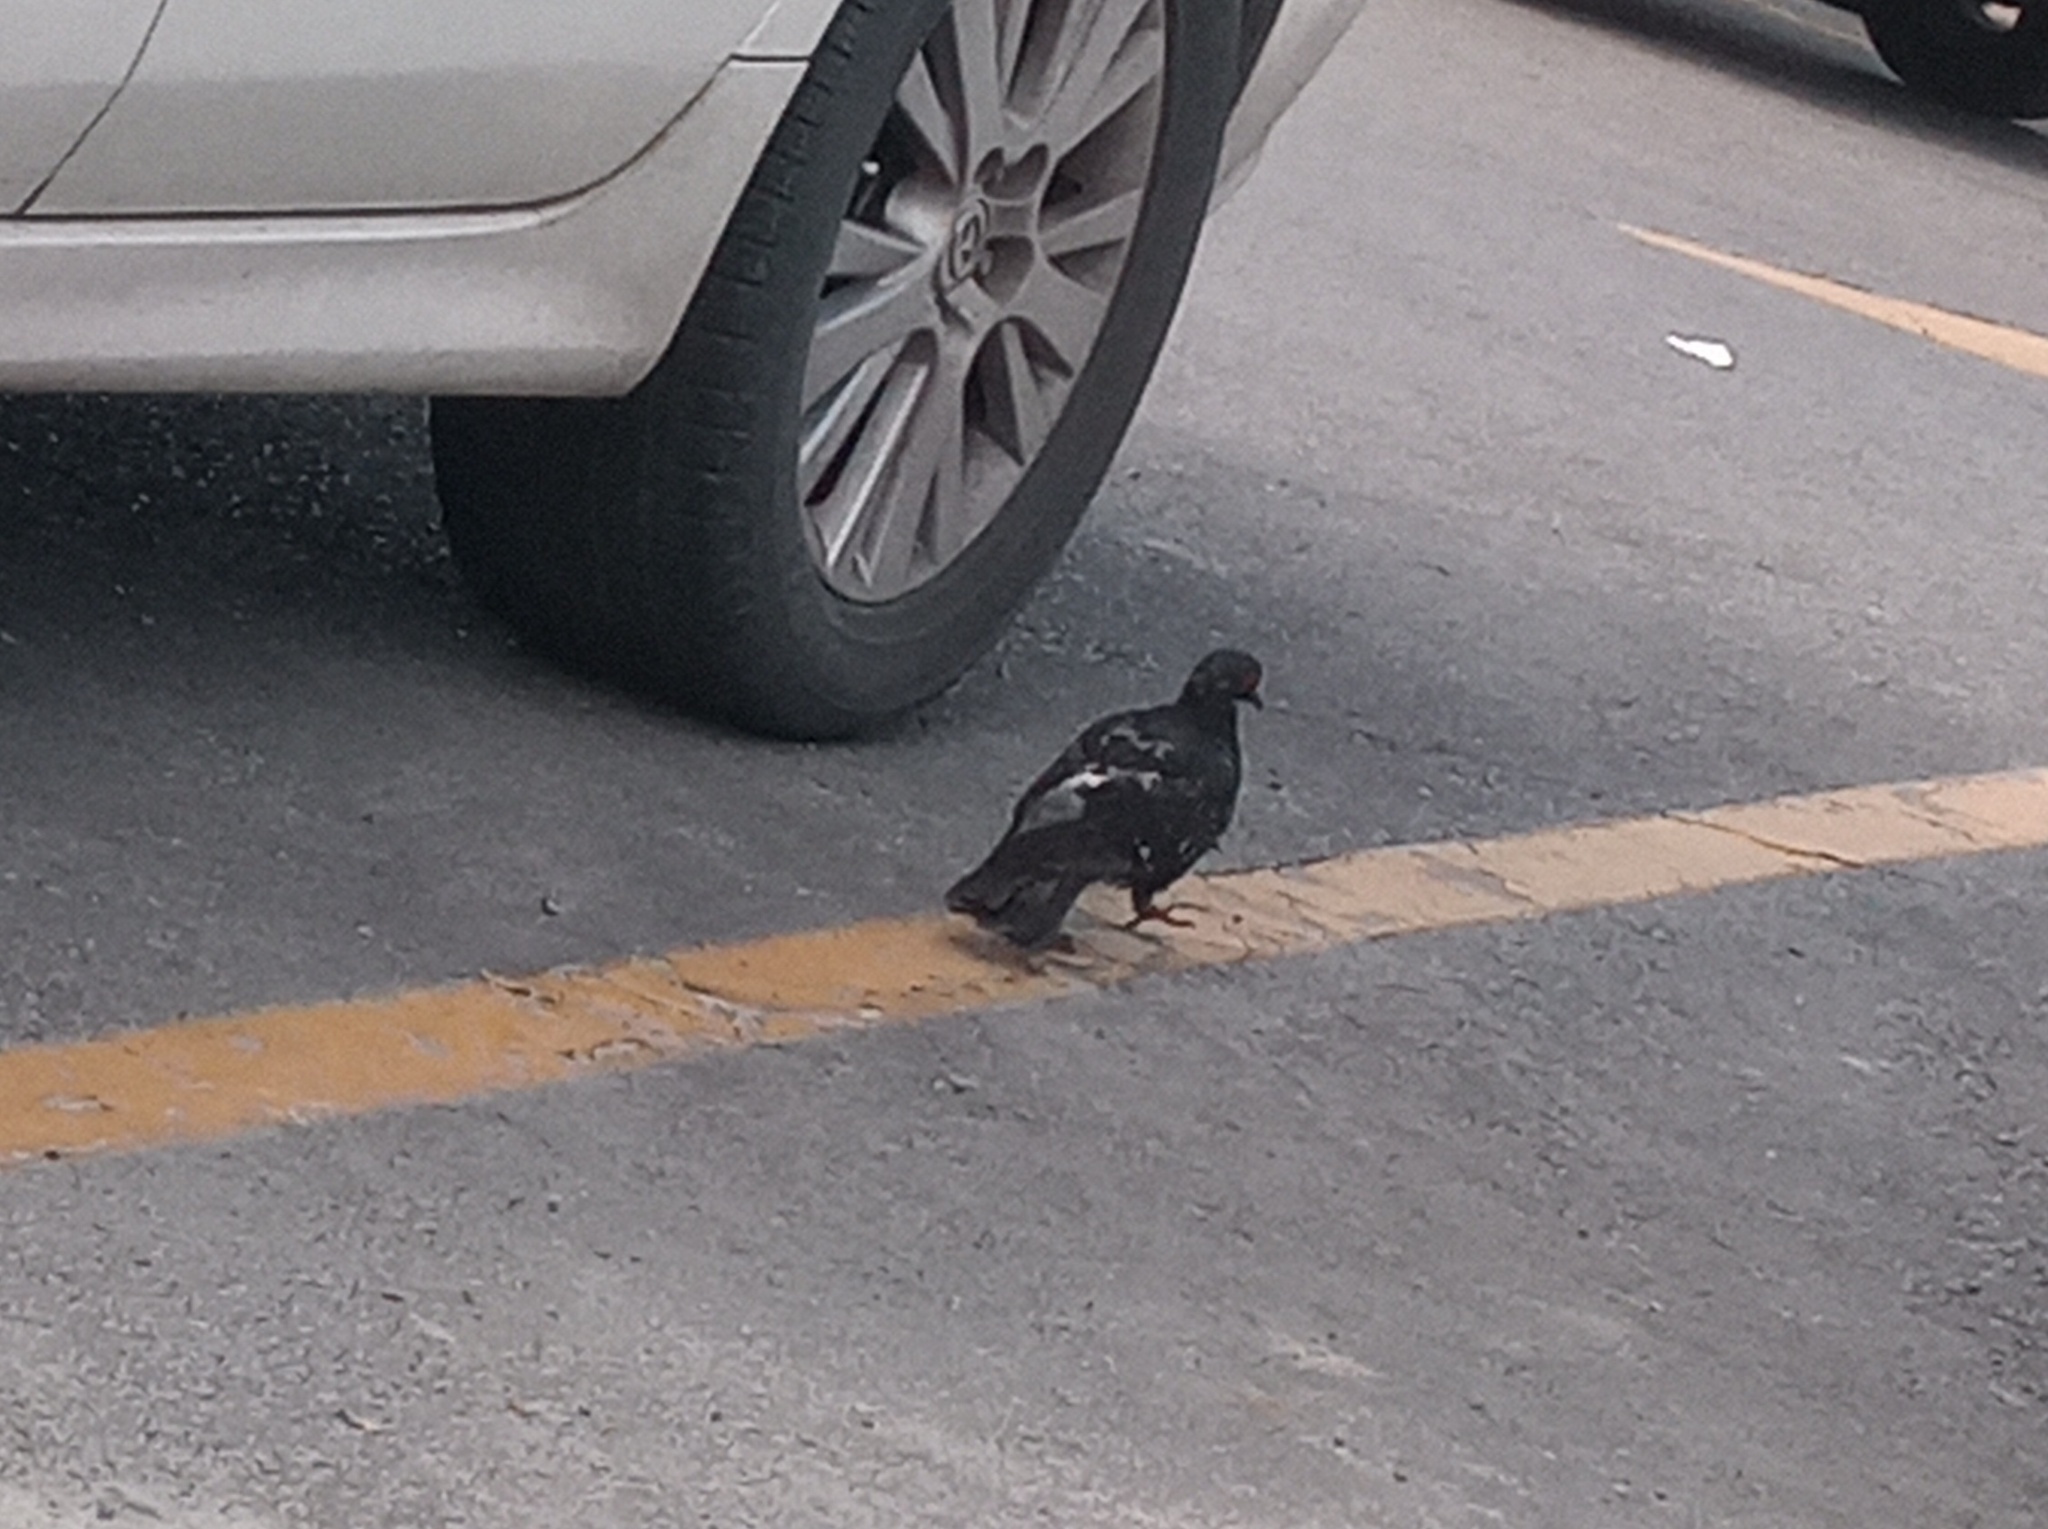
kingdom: Animalia
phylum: Chordata
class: Aves
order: Columbiformes
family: Columbidae
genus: Columba
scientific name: Columba livia
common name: Rock pigeon
